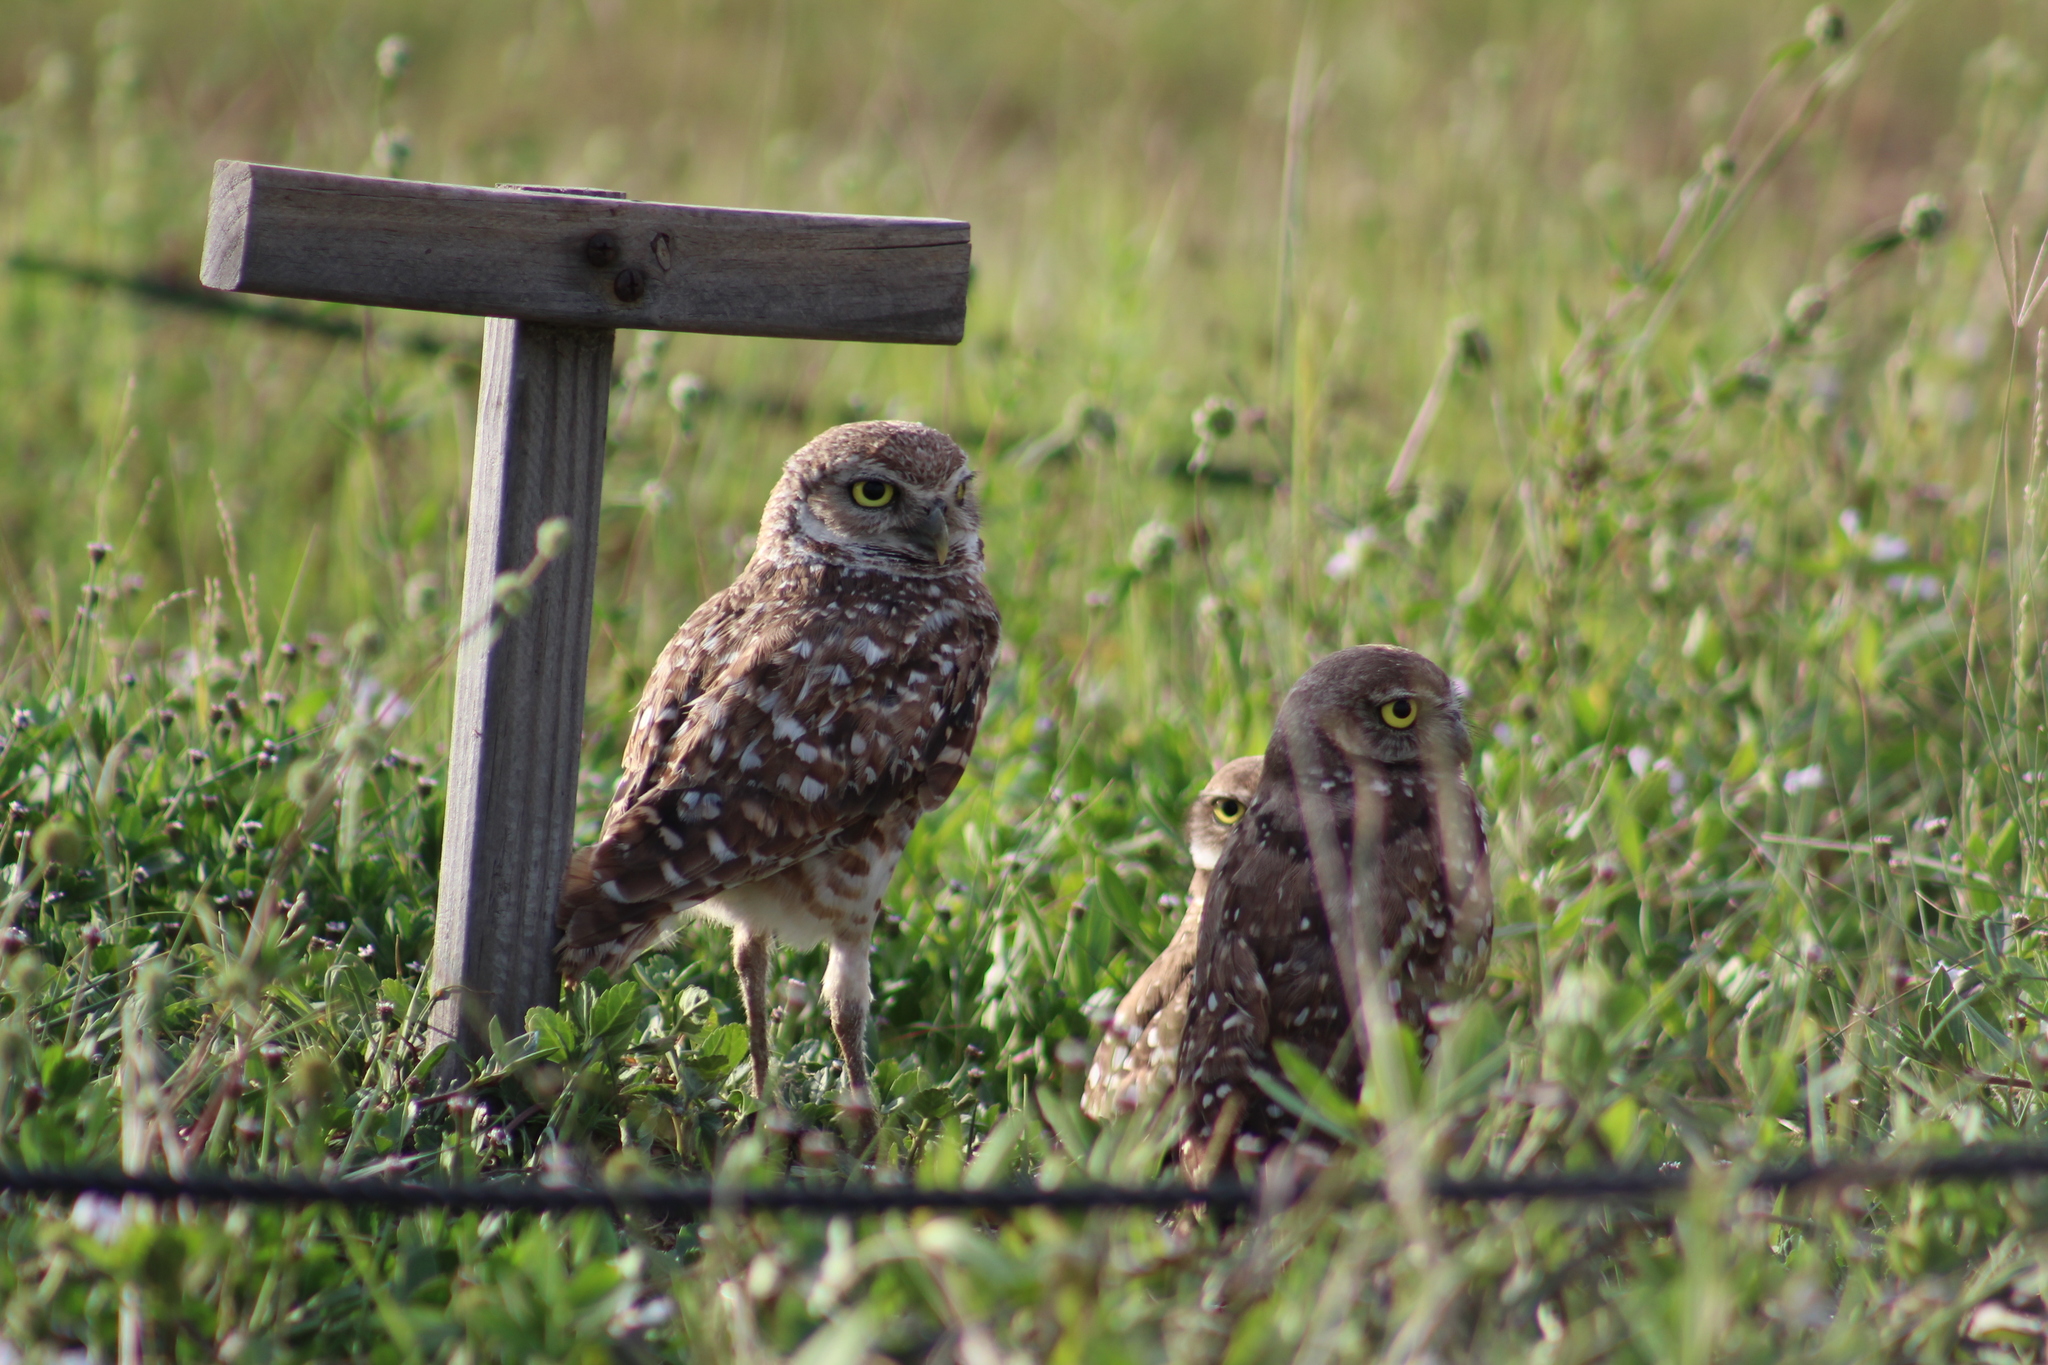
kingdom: Animalia
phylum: Chordata
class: Aves
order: Strigiformes
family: Strigidae
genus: Athene
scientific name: Athene cunicularia
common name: Burrowing owl
